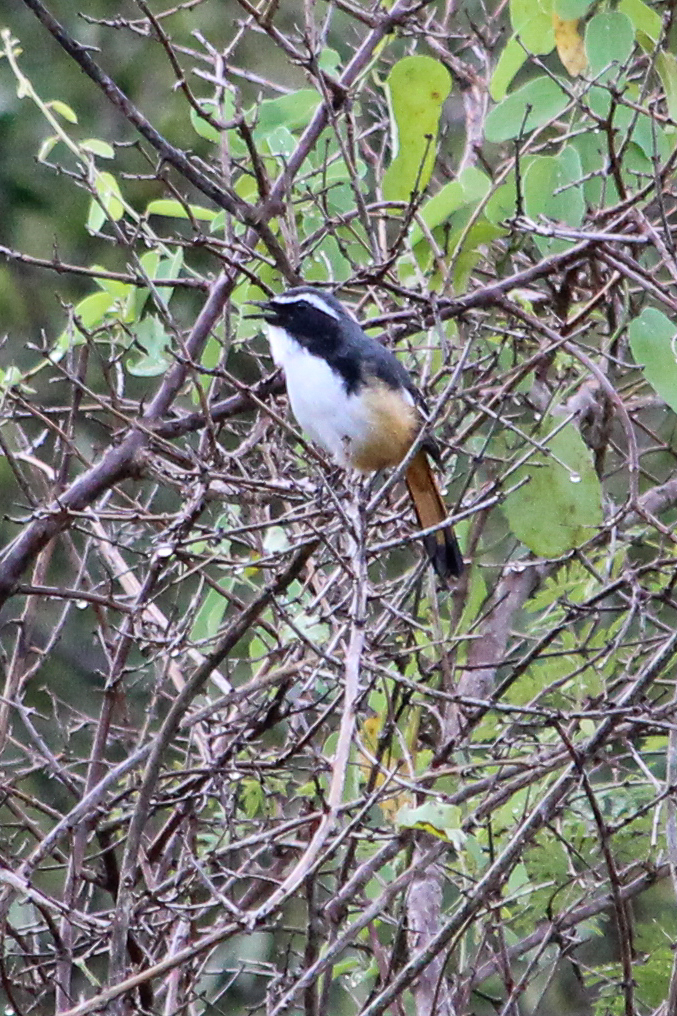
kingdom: Animalia
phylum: Chordata
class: Aves
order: Passeriformes
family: Muscicapidae
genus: Cossypha
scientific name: Cossypha humeralis
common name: White-throated robin-chat
